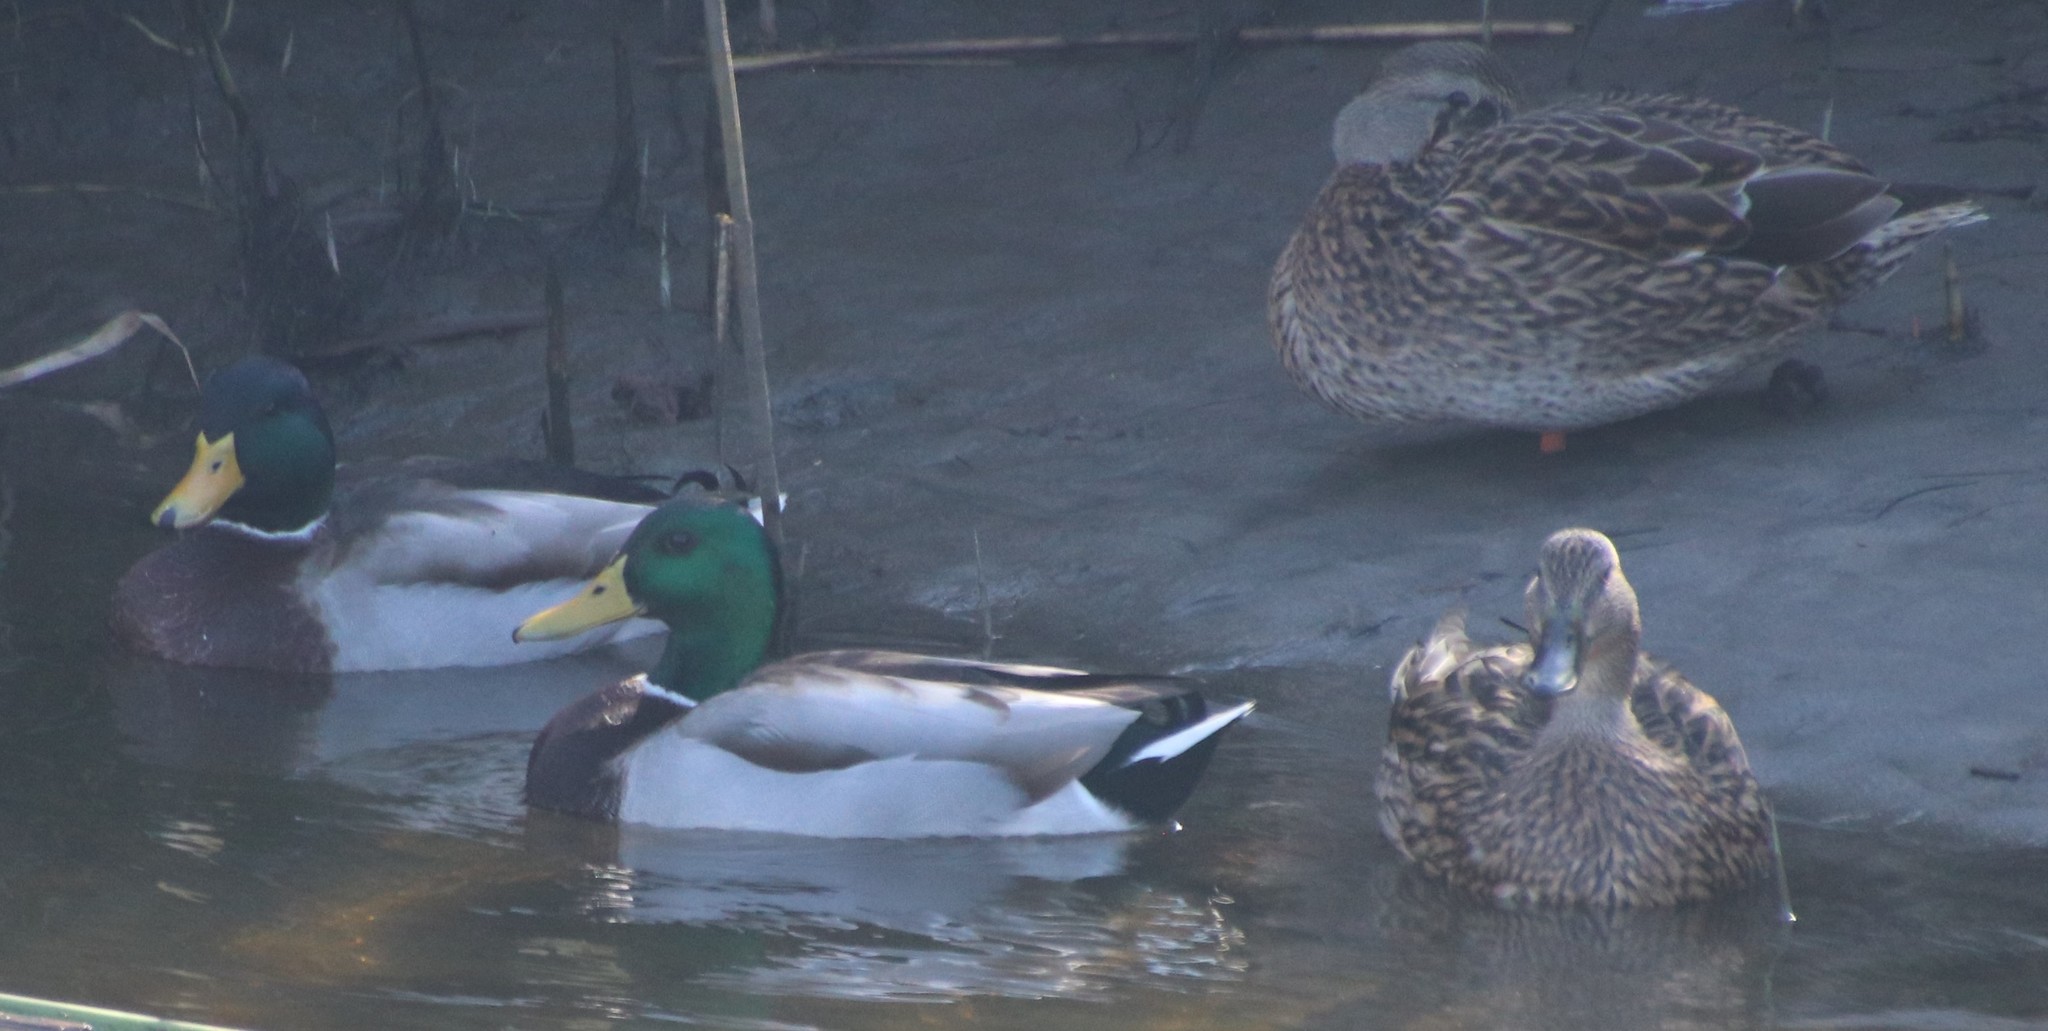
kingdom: Animalia
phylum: Chordata
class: Aves
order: Anseriformes
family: Anatidae
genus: Anas
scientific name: Anas platyrhynchos
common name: Mallard
